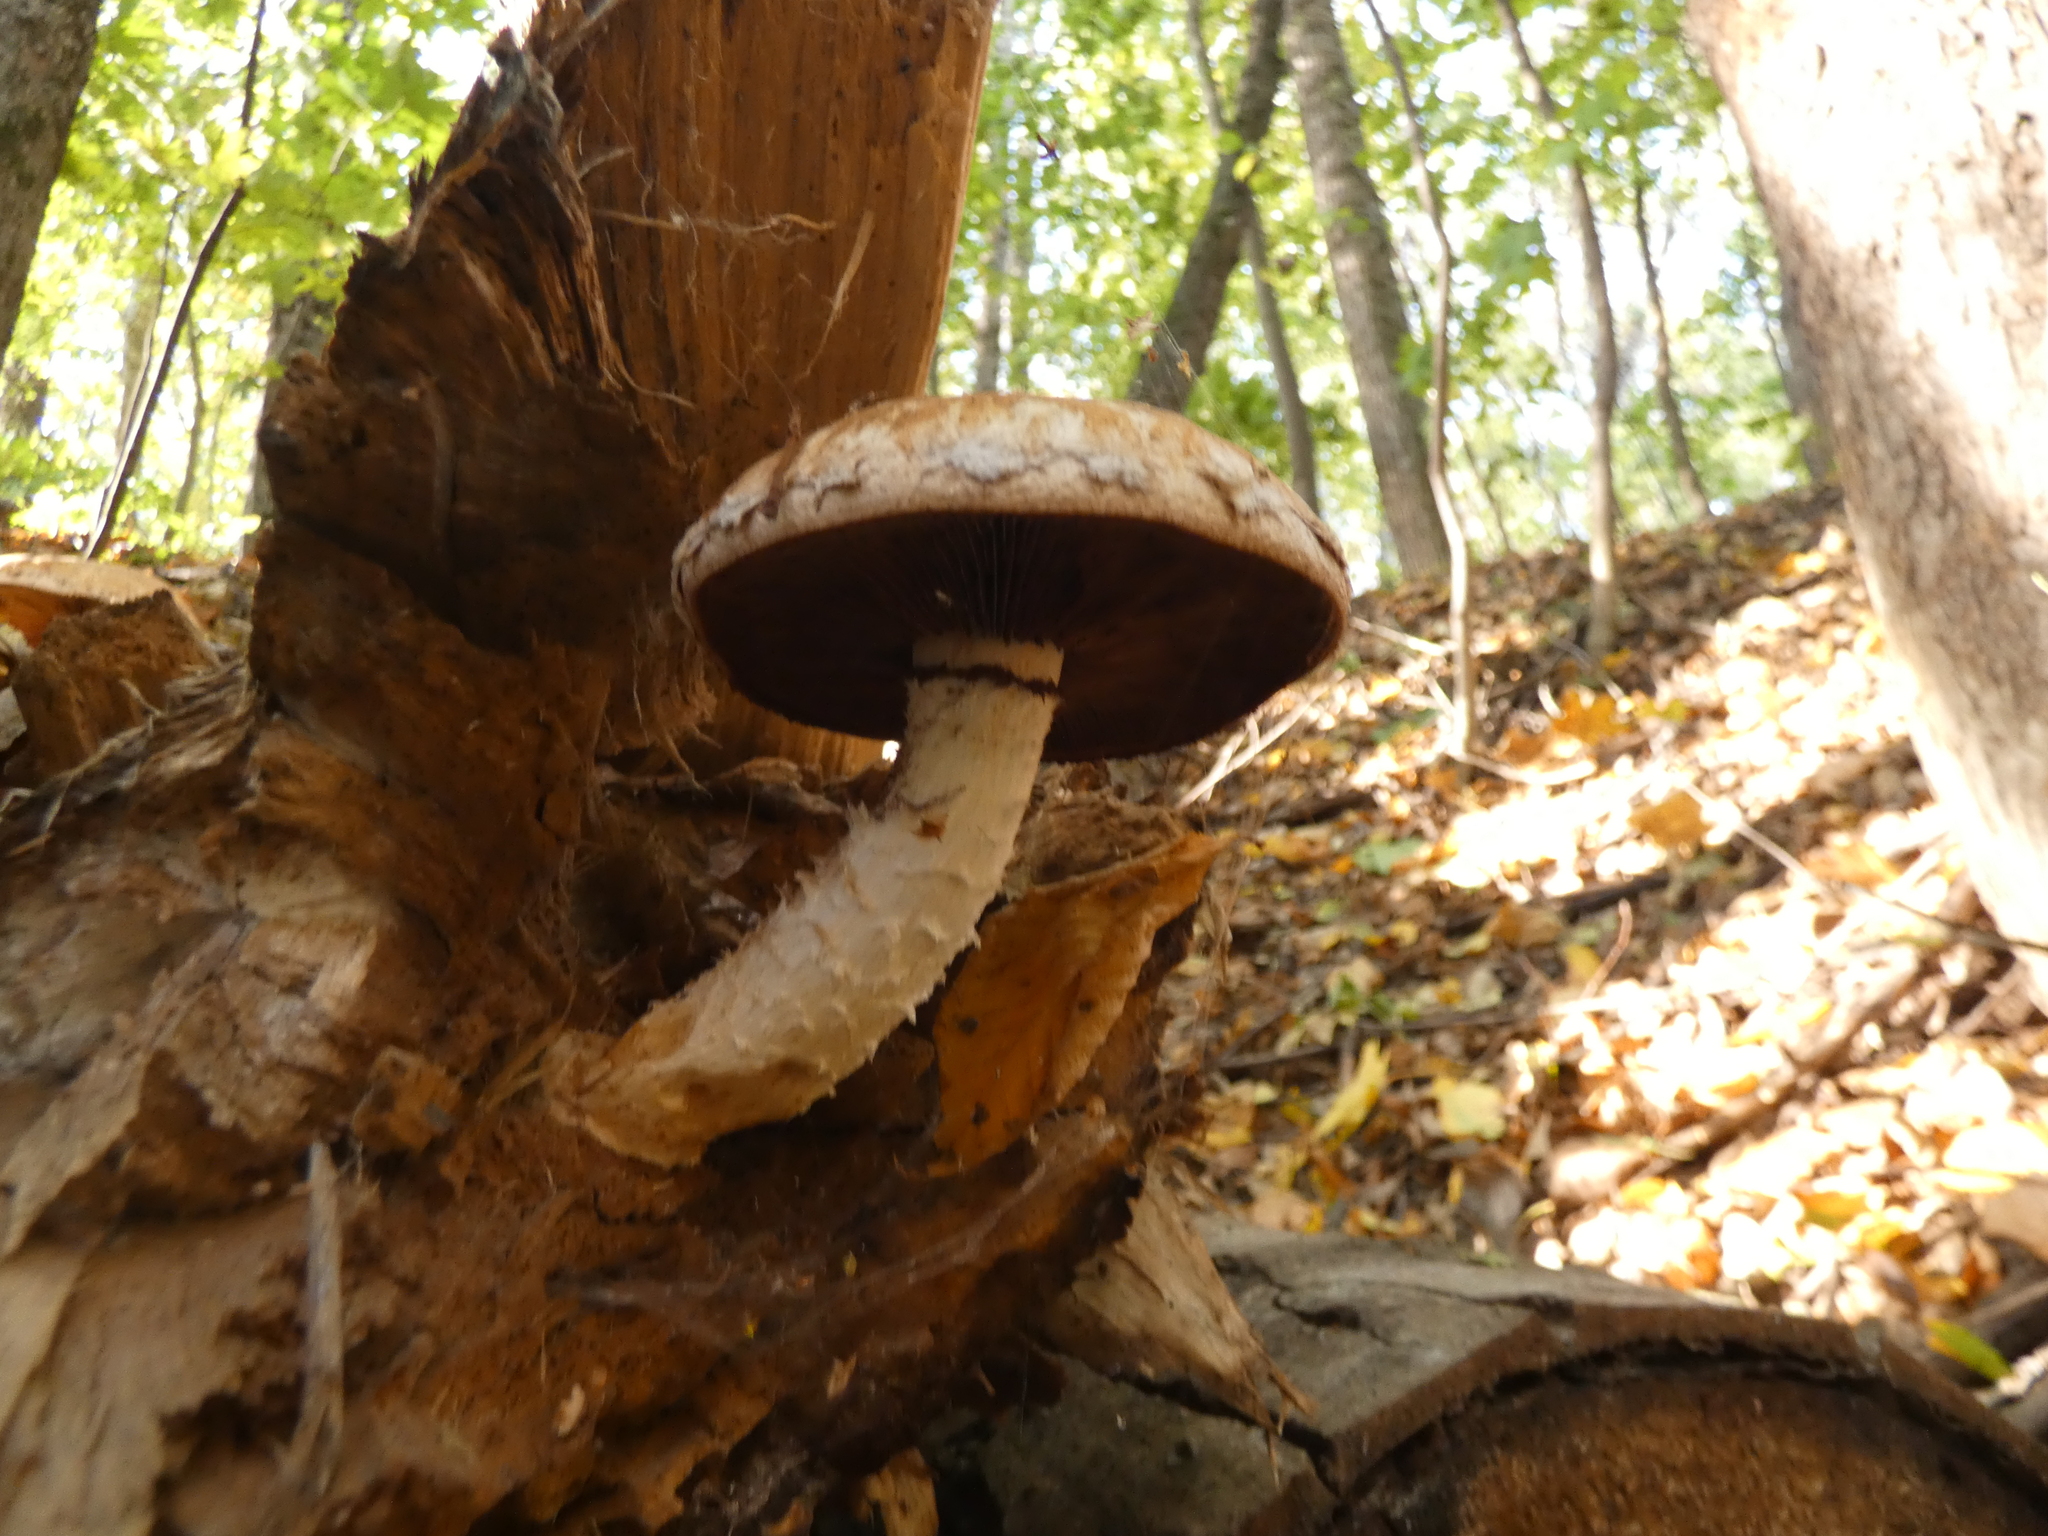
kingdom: Fungi
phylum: Basidiomycota
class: Agaricomycetes
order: Agaricales
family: Strophariaceae
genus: Pholiota
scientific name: Pholiota populnea
